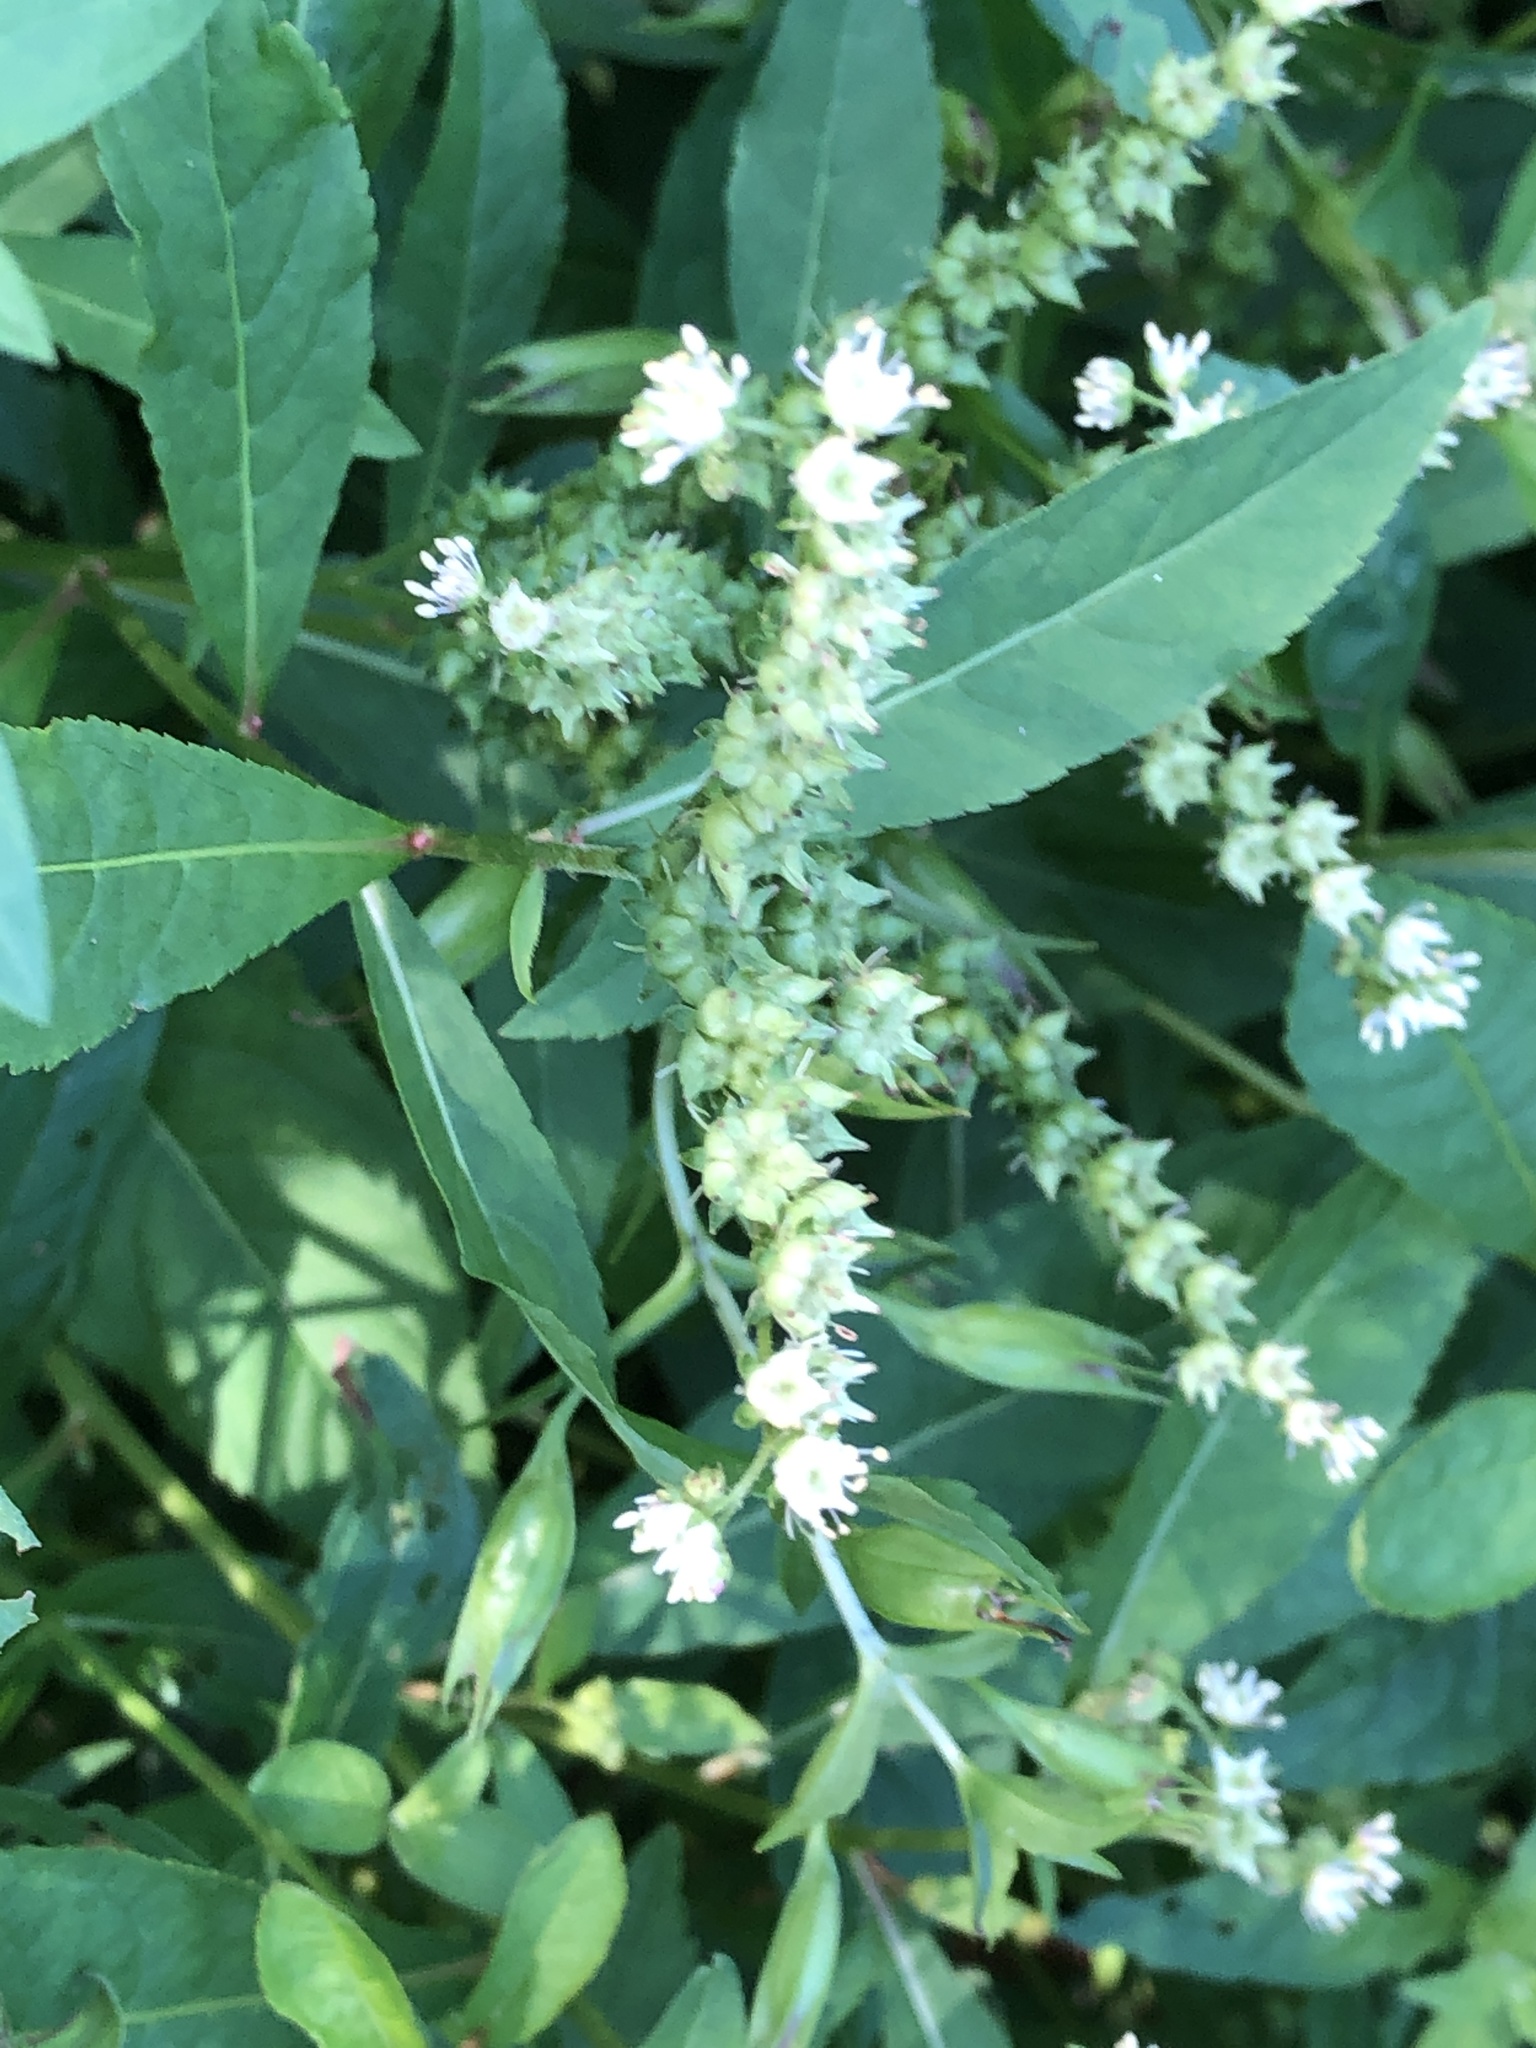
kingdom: Plantae
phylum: Tracheophyta
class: Magnoliopsida
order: Saxifragales
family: Penthoraceae
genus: Penthorum
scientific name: Penthorum sedoides
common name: Ditch stonecrop
